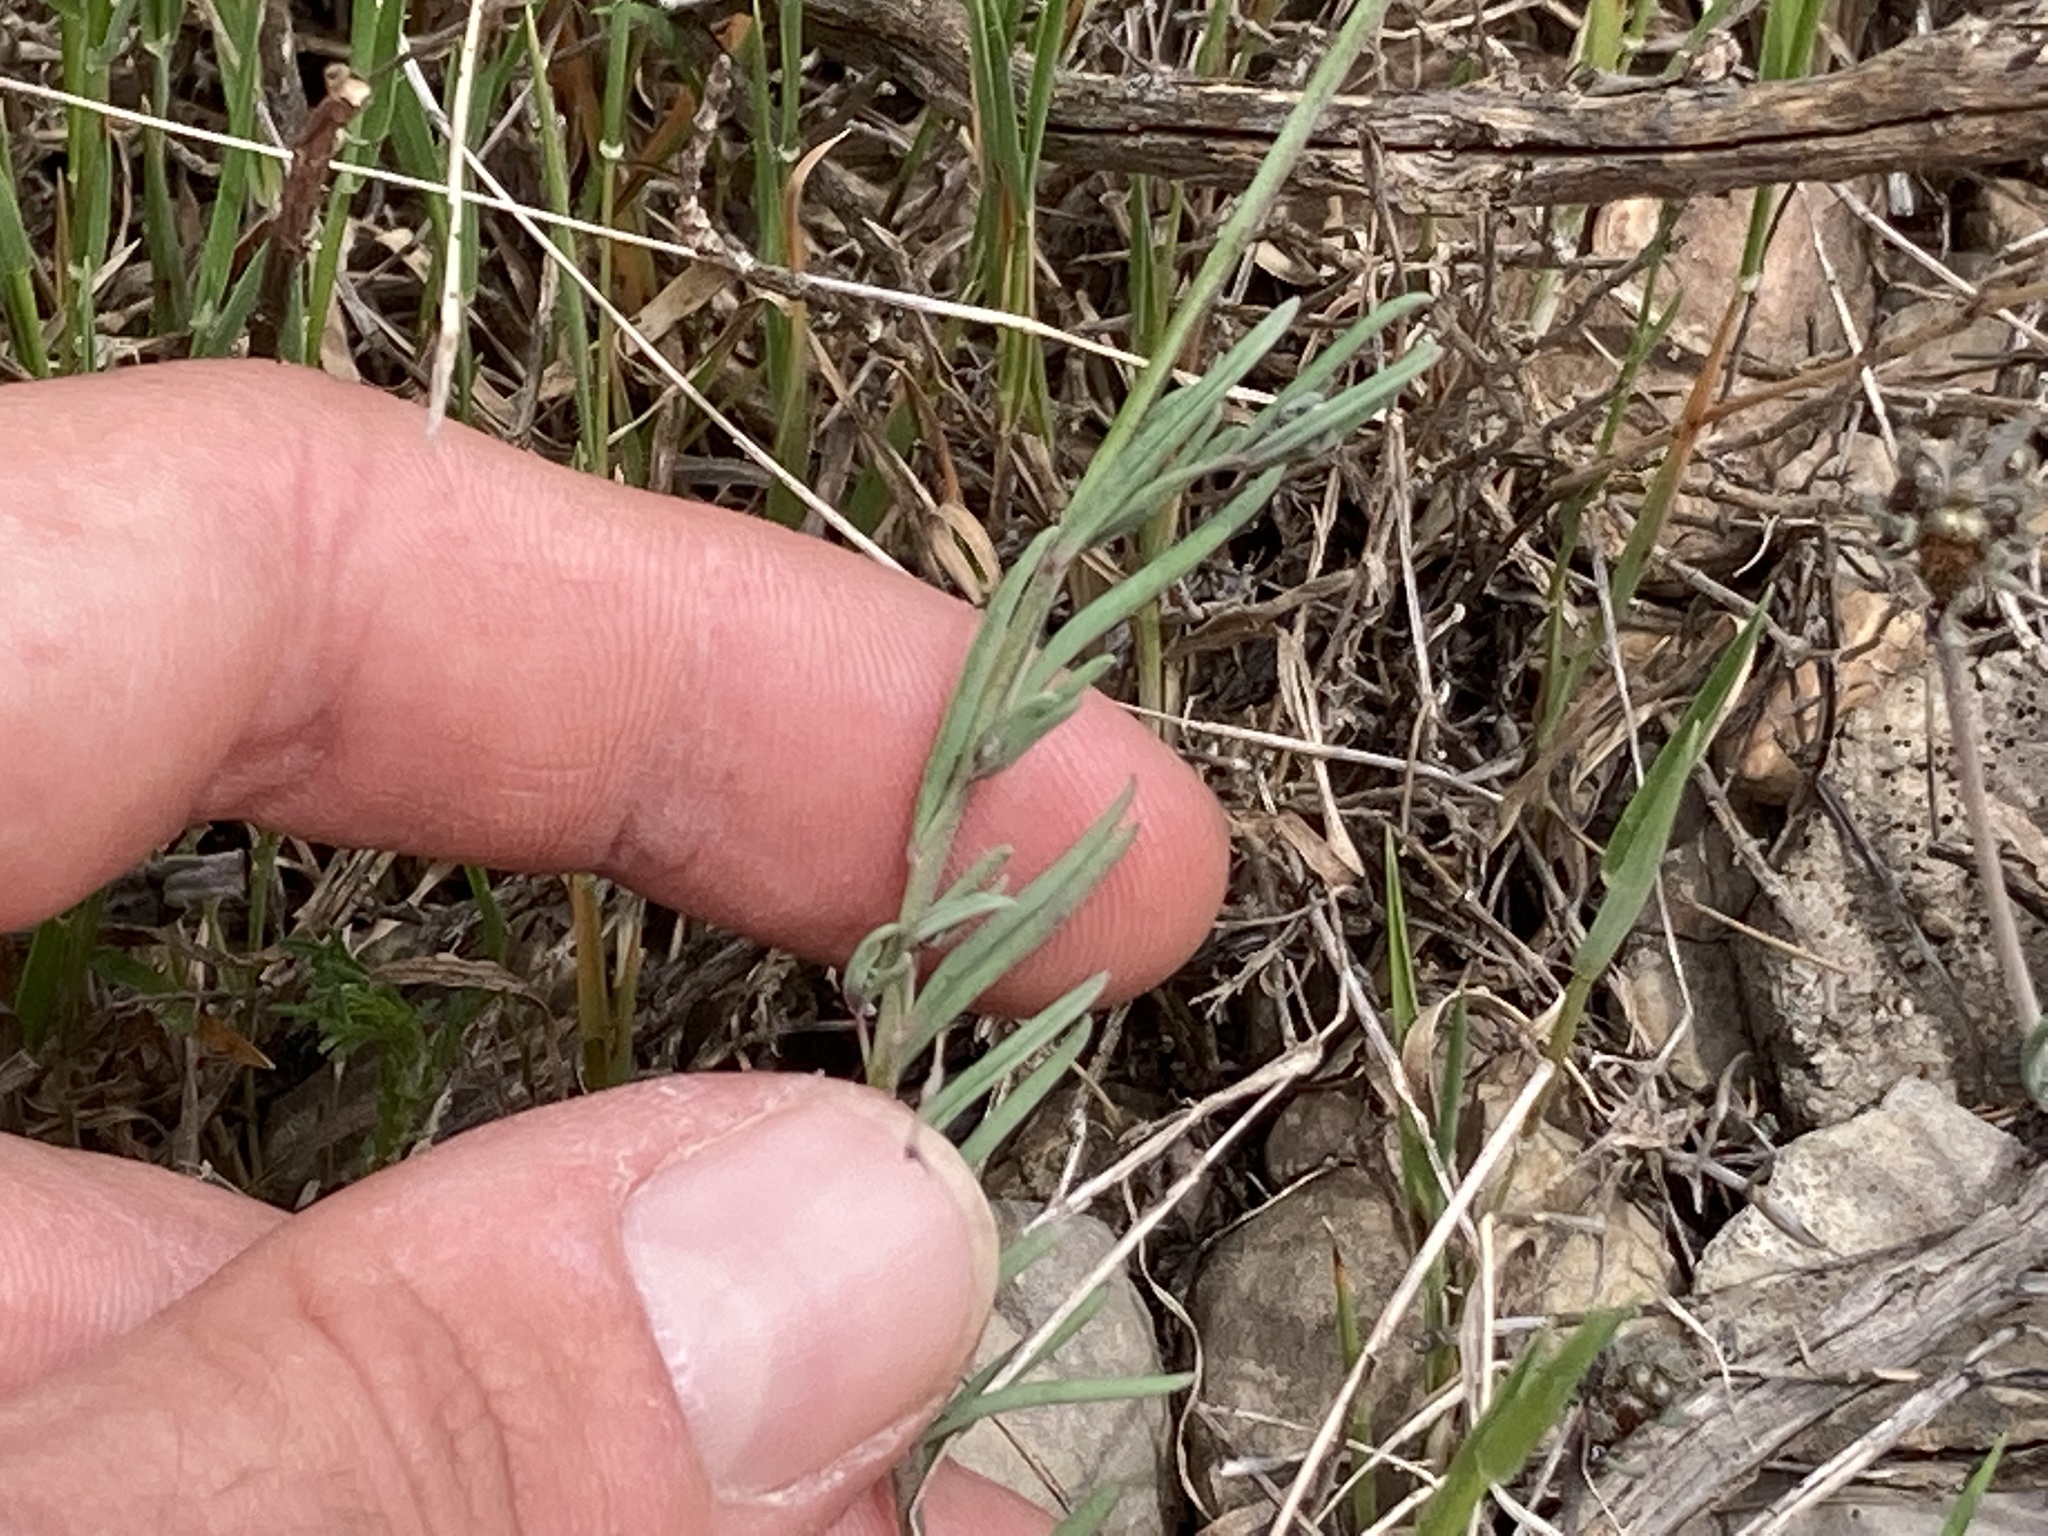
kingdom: Plantae
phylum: Tracheophyta
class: Magnoliopsida
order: Lamiales
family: Plantaginaceae
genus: Linaria
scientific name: Linaria aeruginea
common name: Roadside toadflax
